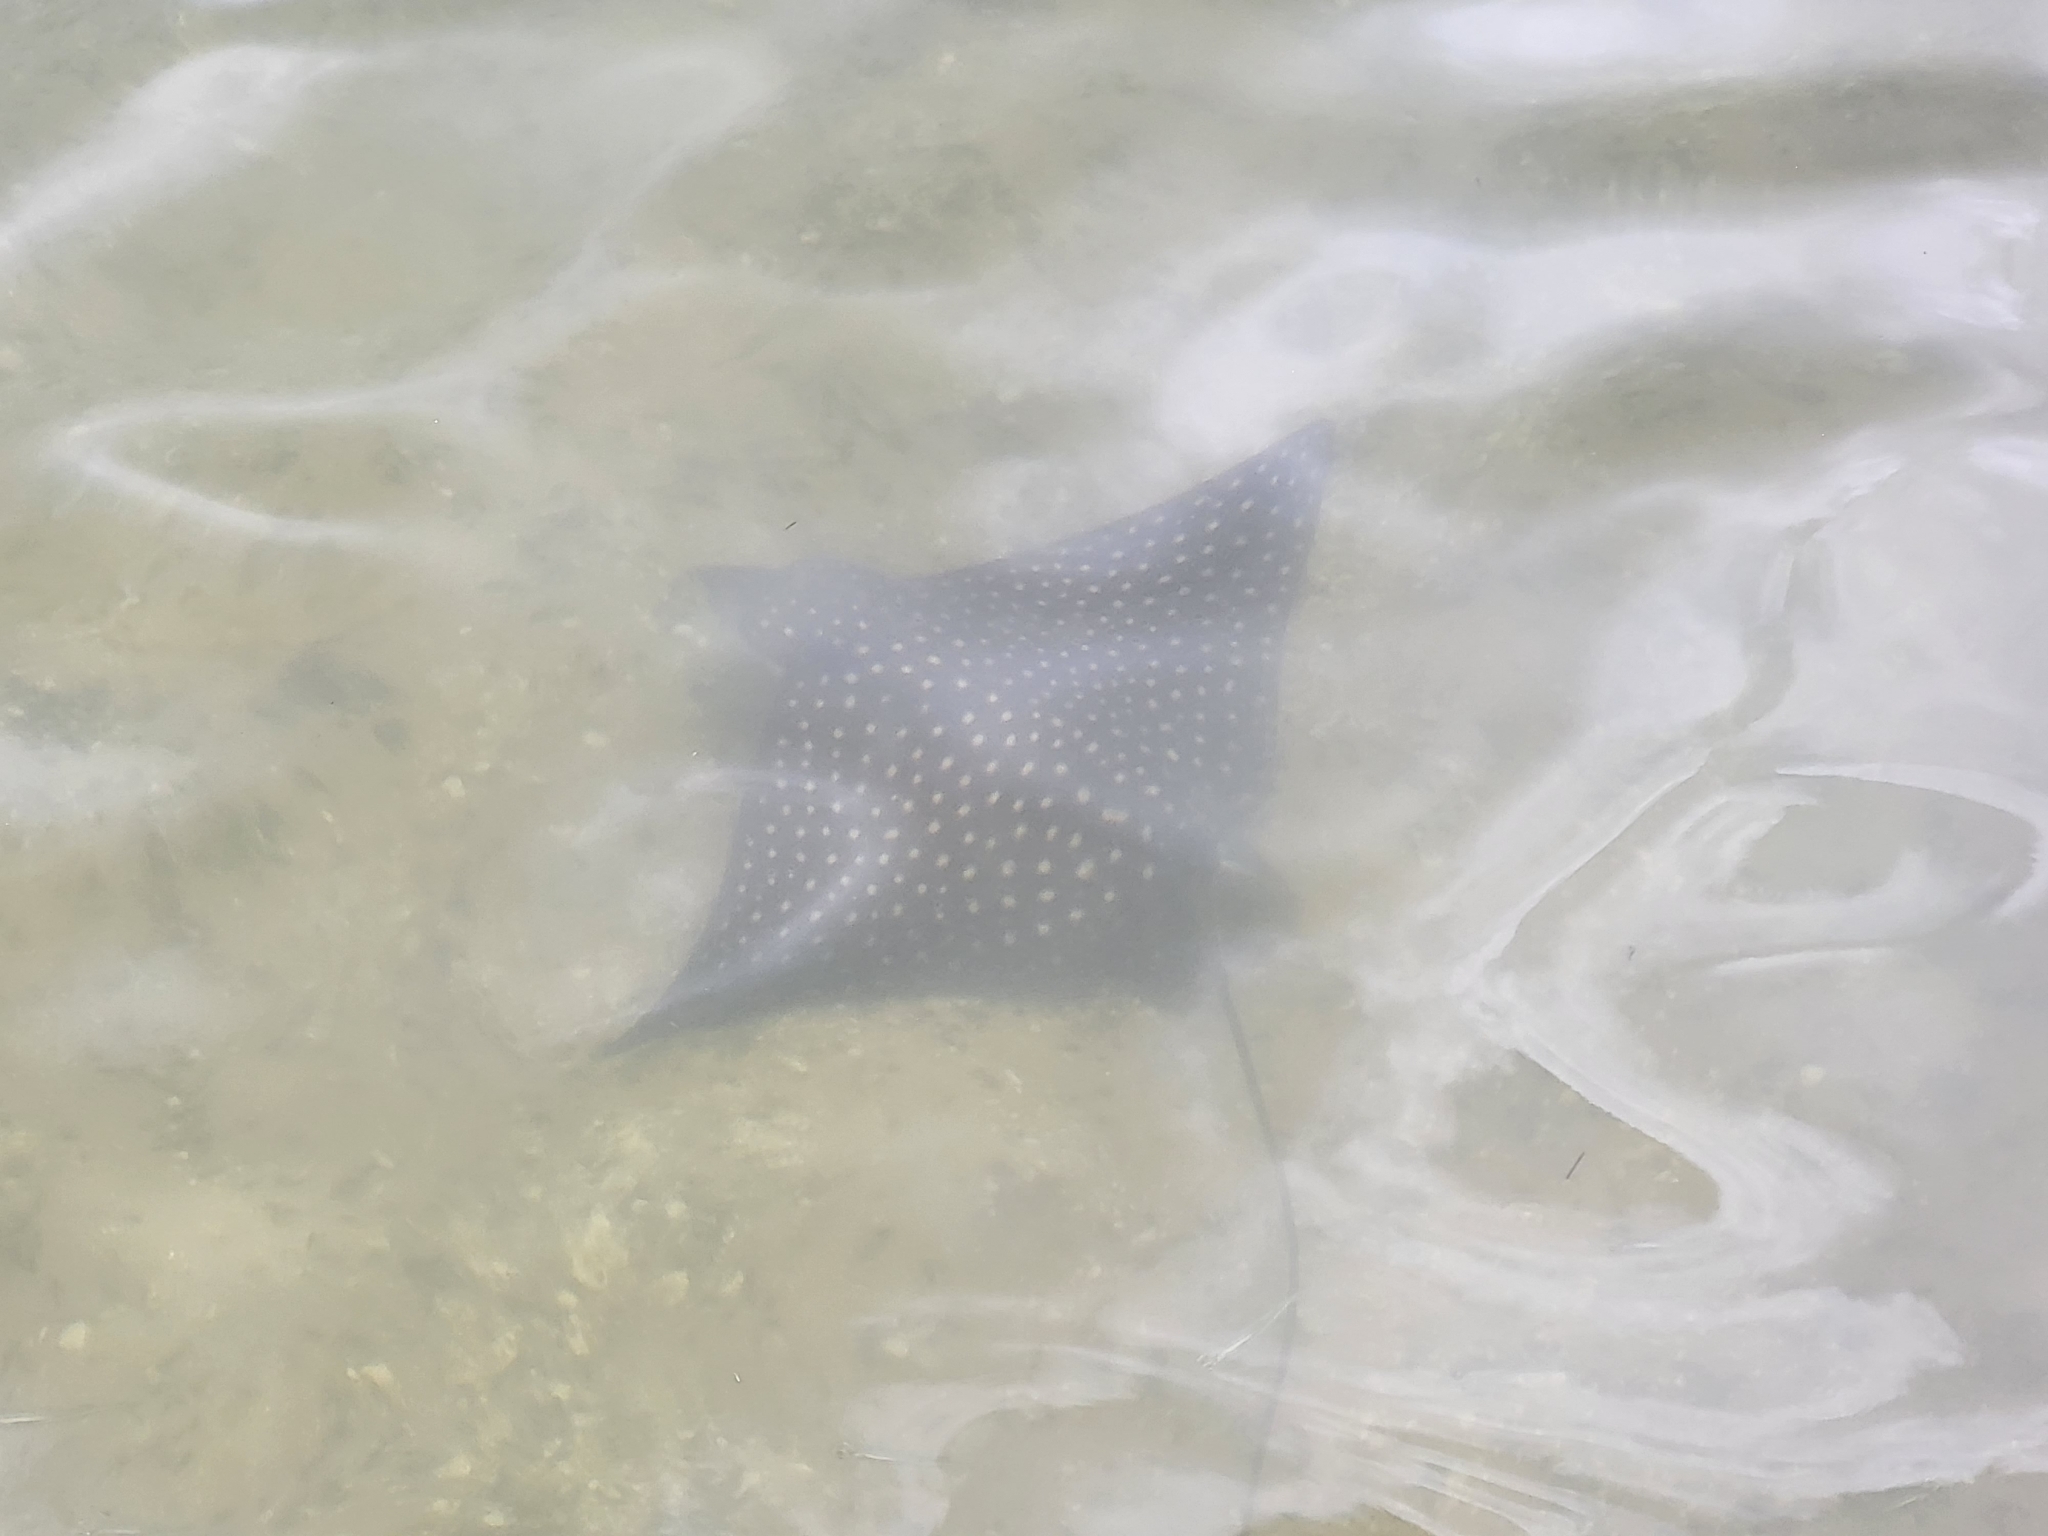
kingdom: Animalia
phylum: Chordata
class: Elasmobranchii
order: Myliobatiformes
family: Myliobatidae
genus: Aetobatus
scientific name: Aetobatus narinari
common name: Spotted eagle ray
